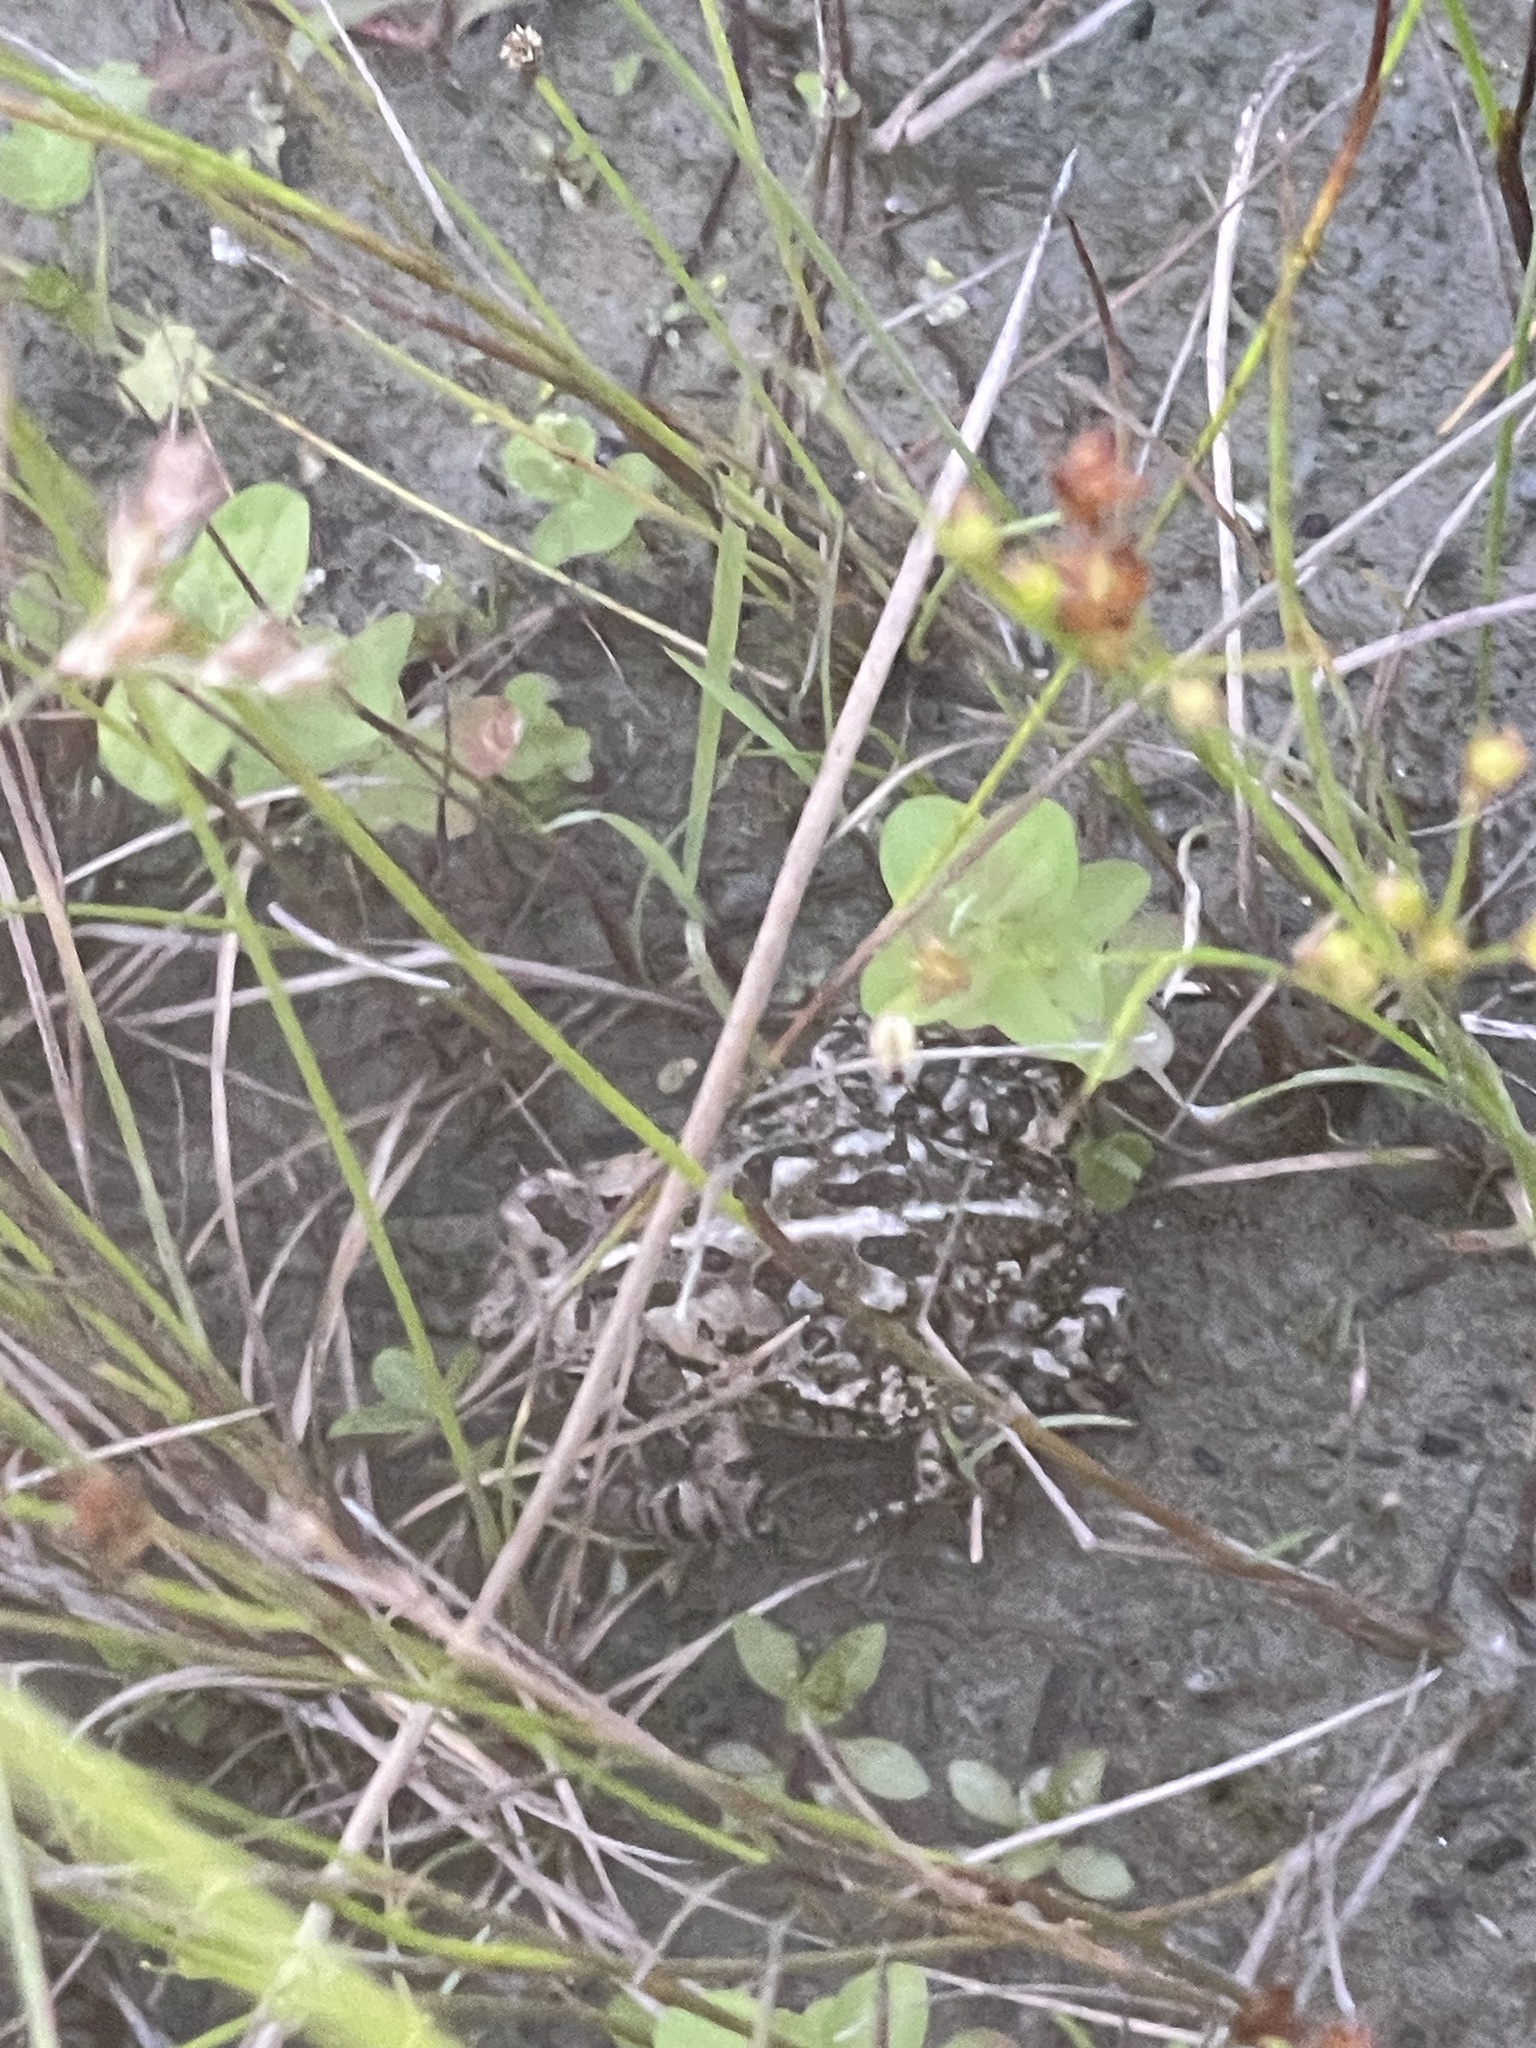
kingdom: Animalia
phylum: Chordata
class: Amphibia
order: Anura
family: Bufonidae
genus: Anaxyrus
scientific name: Anaxyrus fowleri
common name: Fowler's toad
